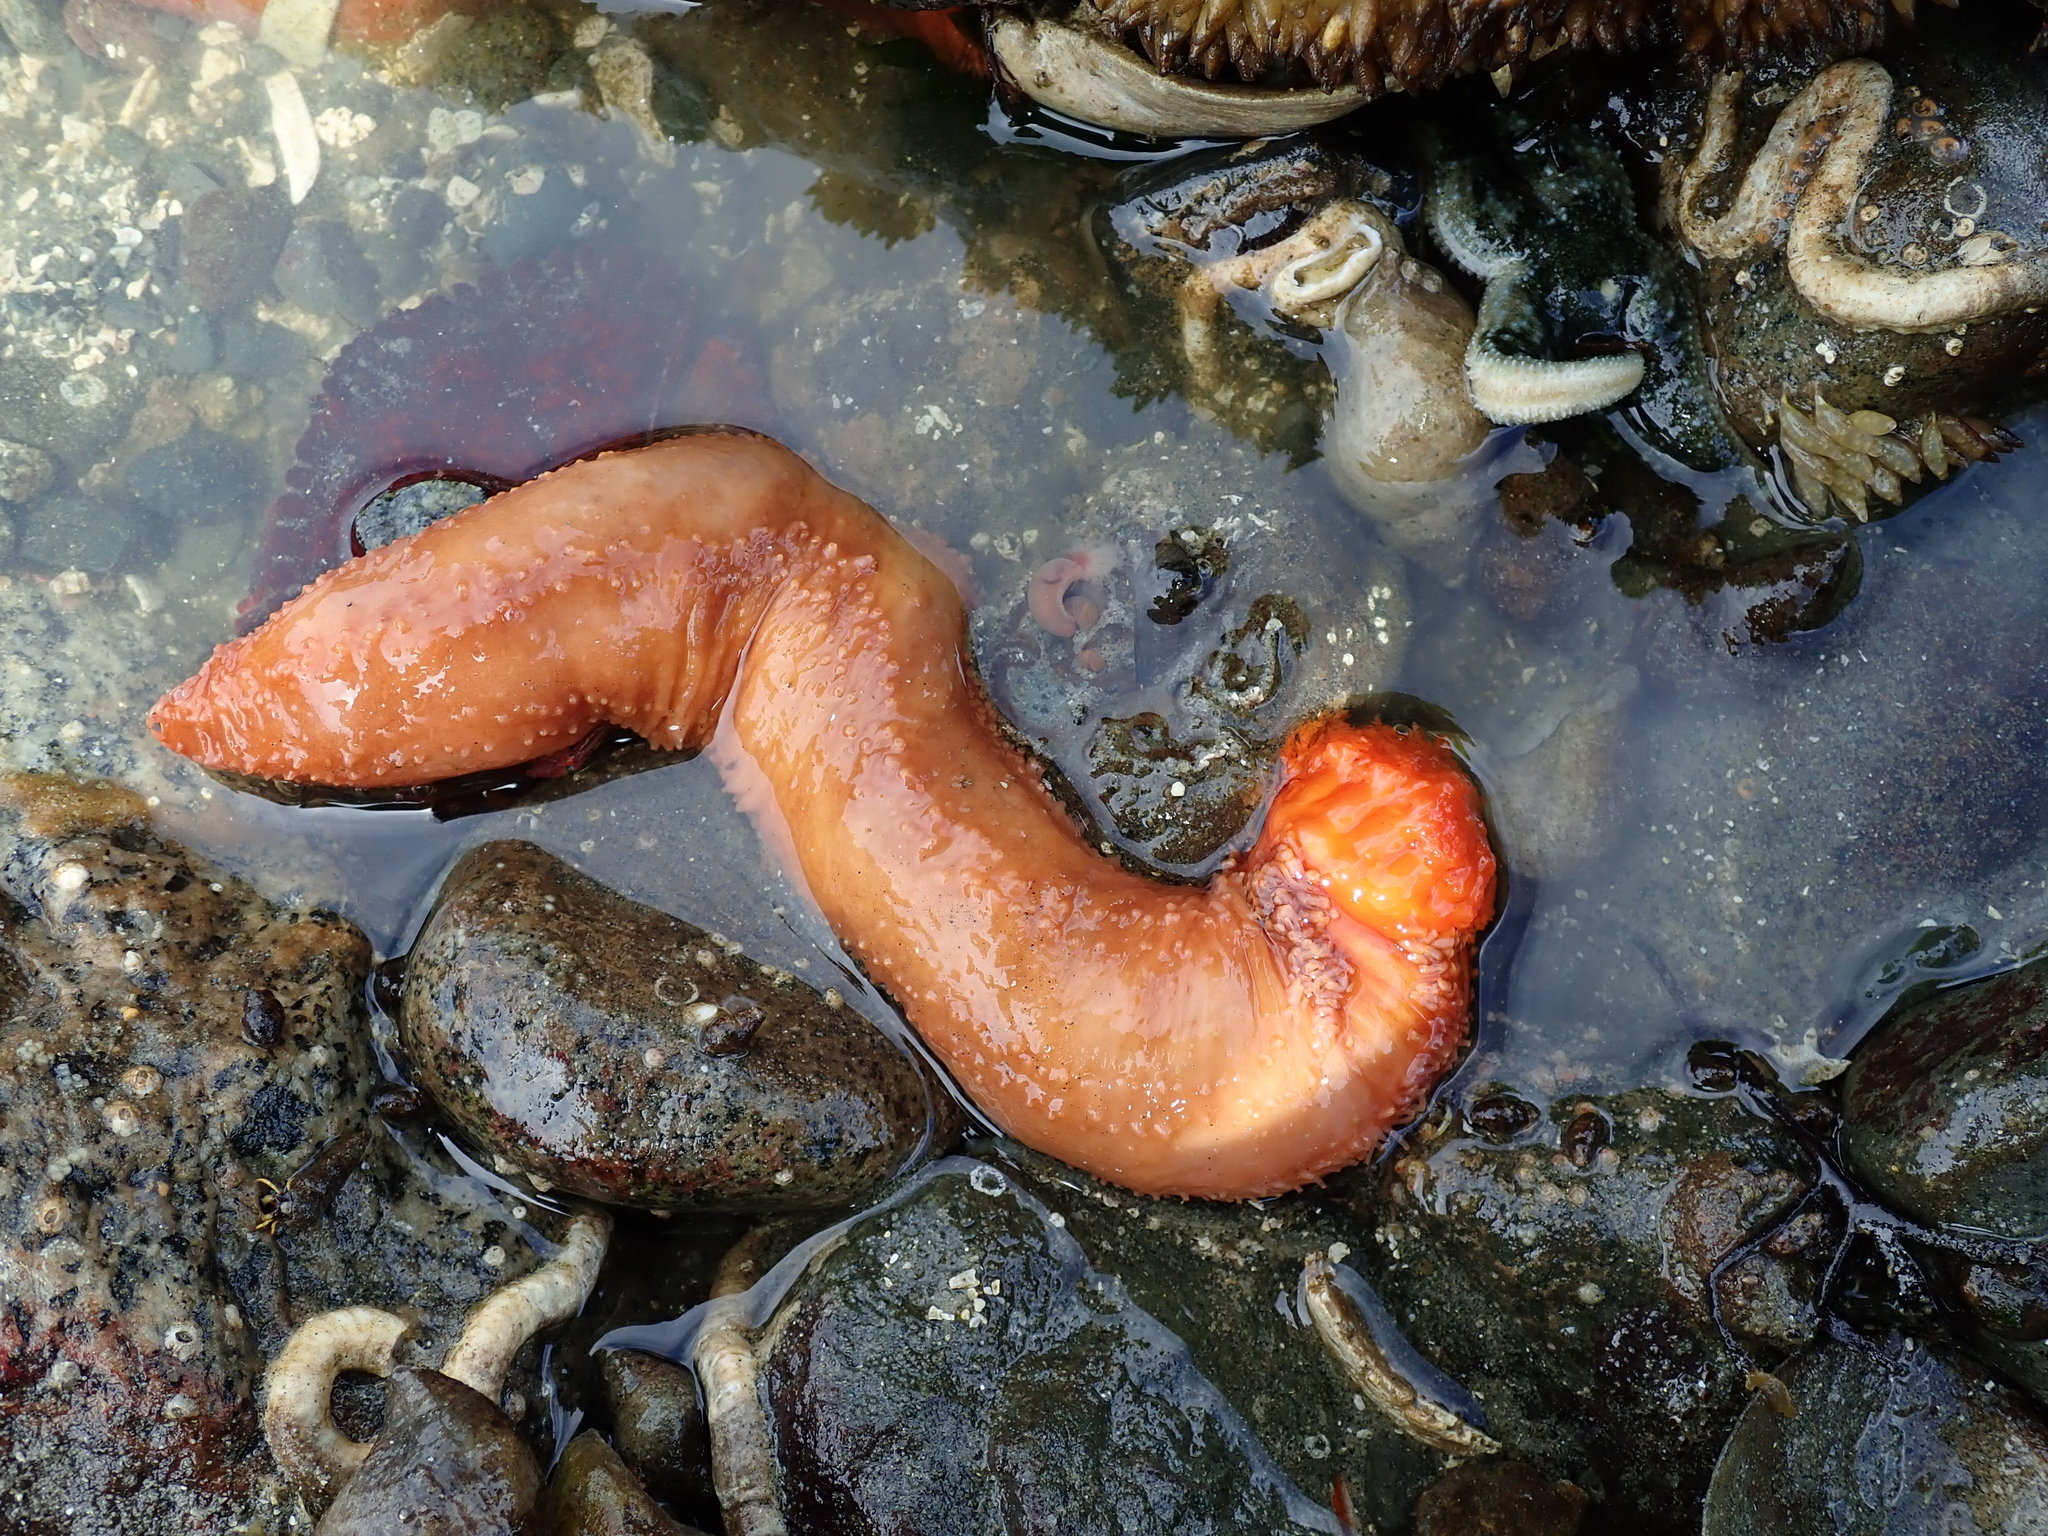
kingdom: Animalia
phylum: Echinodermata
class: Holothuroidea
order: Dendrochirotida
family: Cucumariidae
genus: Cucumaria
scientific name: Cucumaria miniata
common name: Orange sea cucumber
